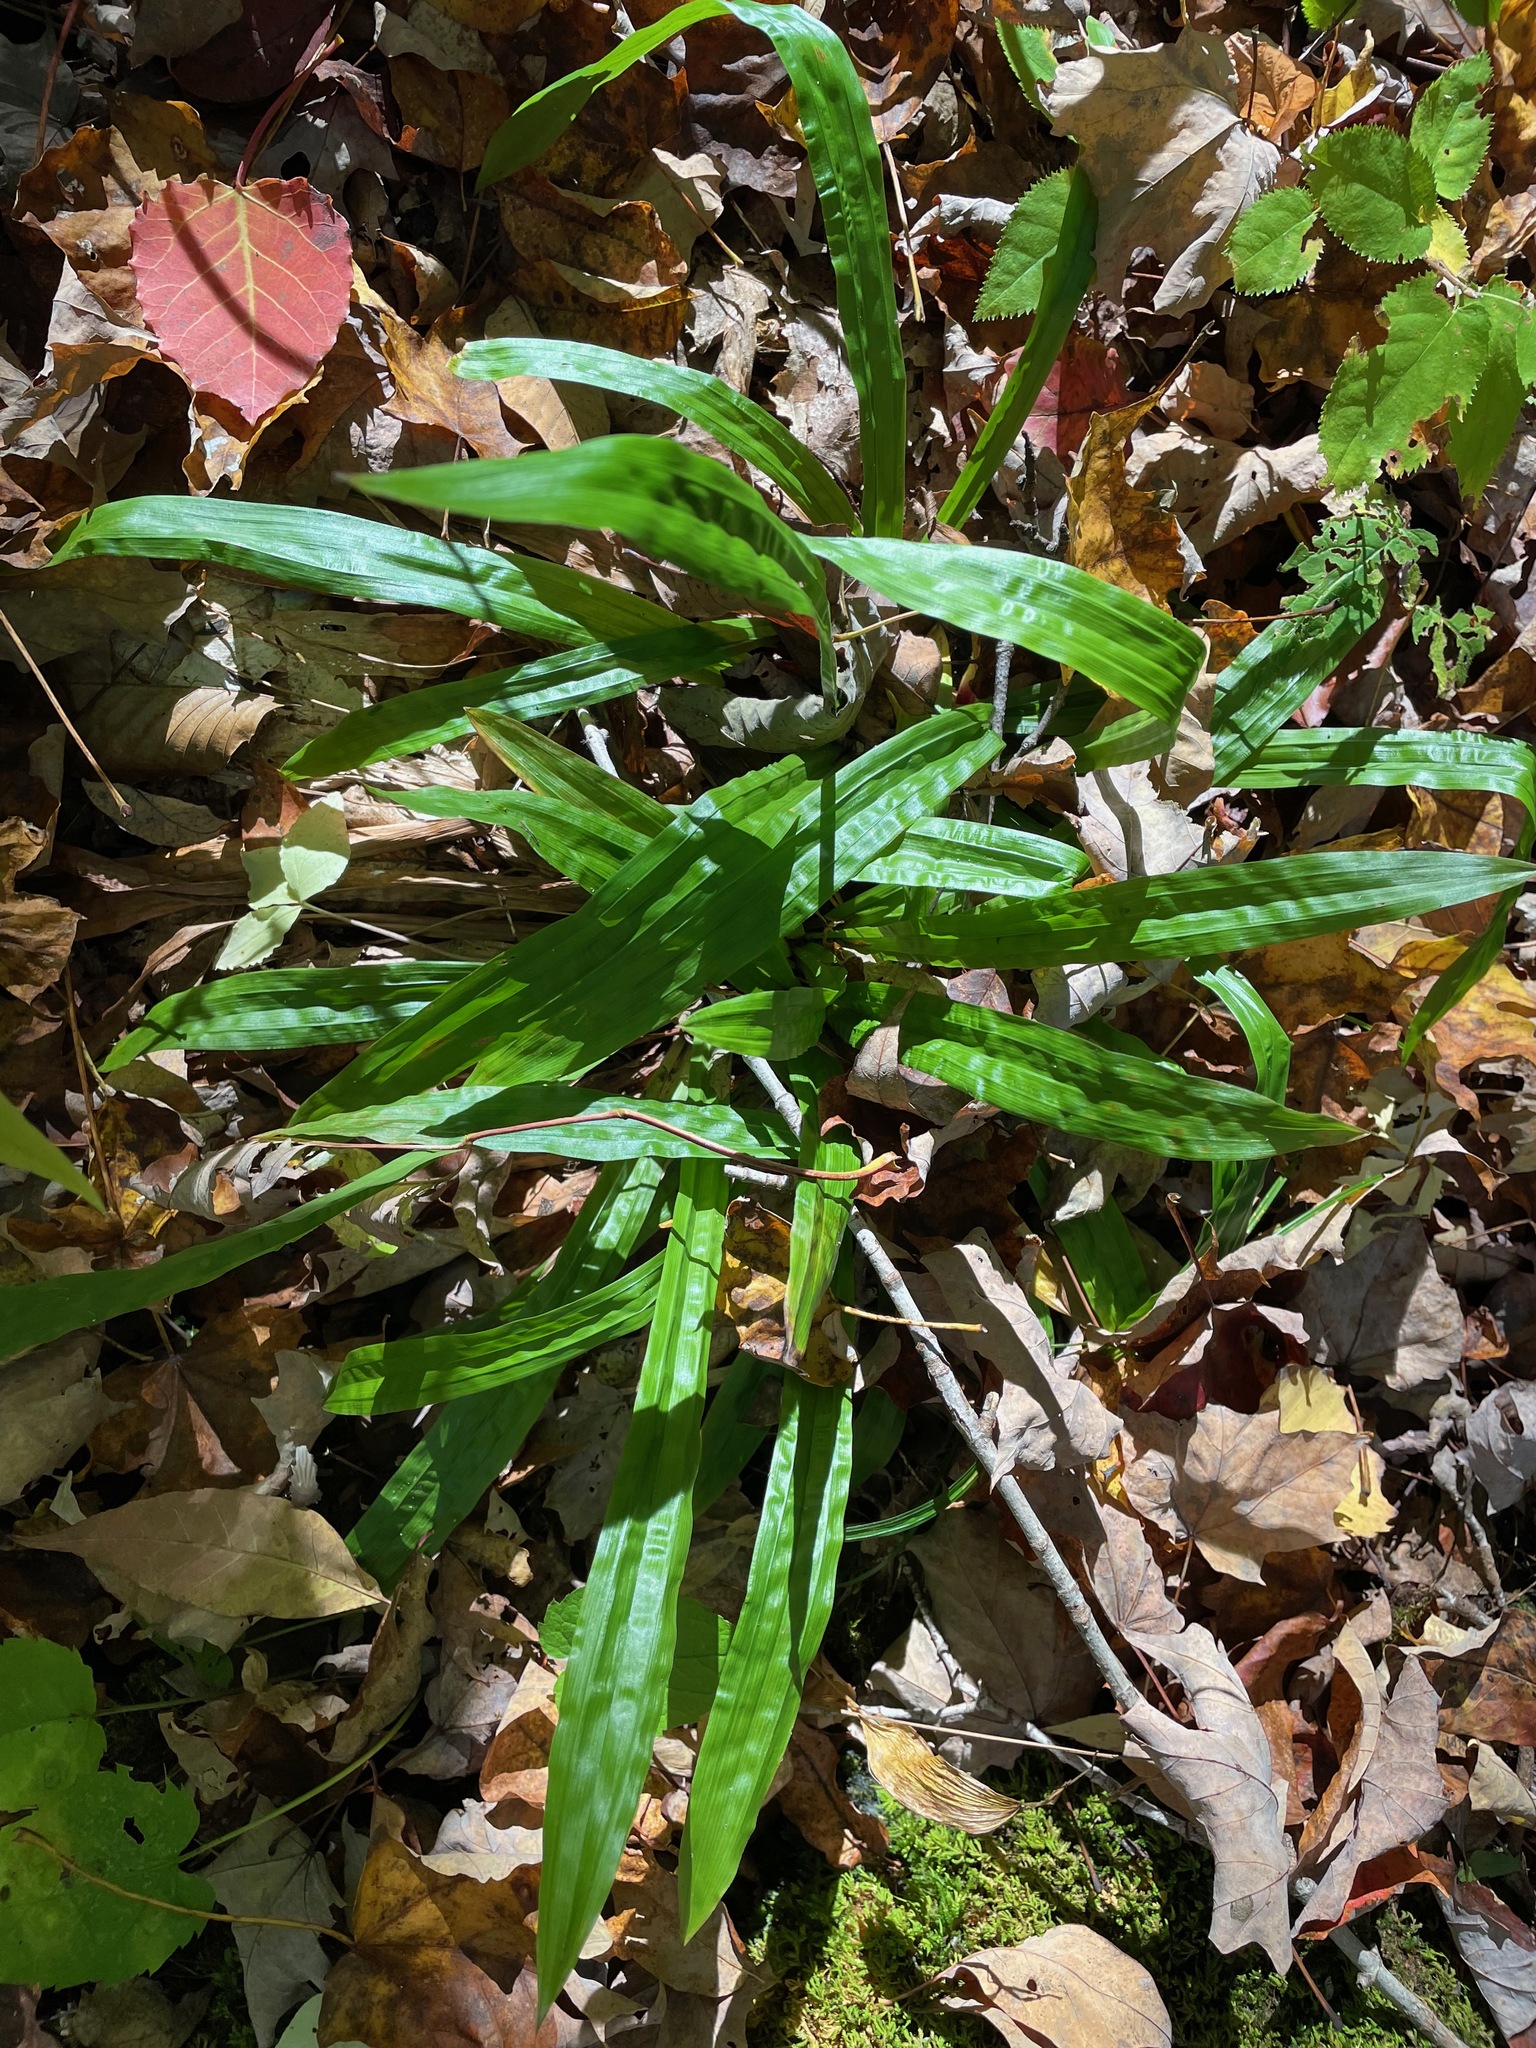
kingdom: Plantae
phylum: Tracheophyta
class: Liliopsida
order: Poales
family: Cyperaceae
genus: Carex
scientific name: Carex plantaginea
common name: Plantain-leaved sedge
